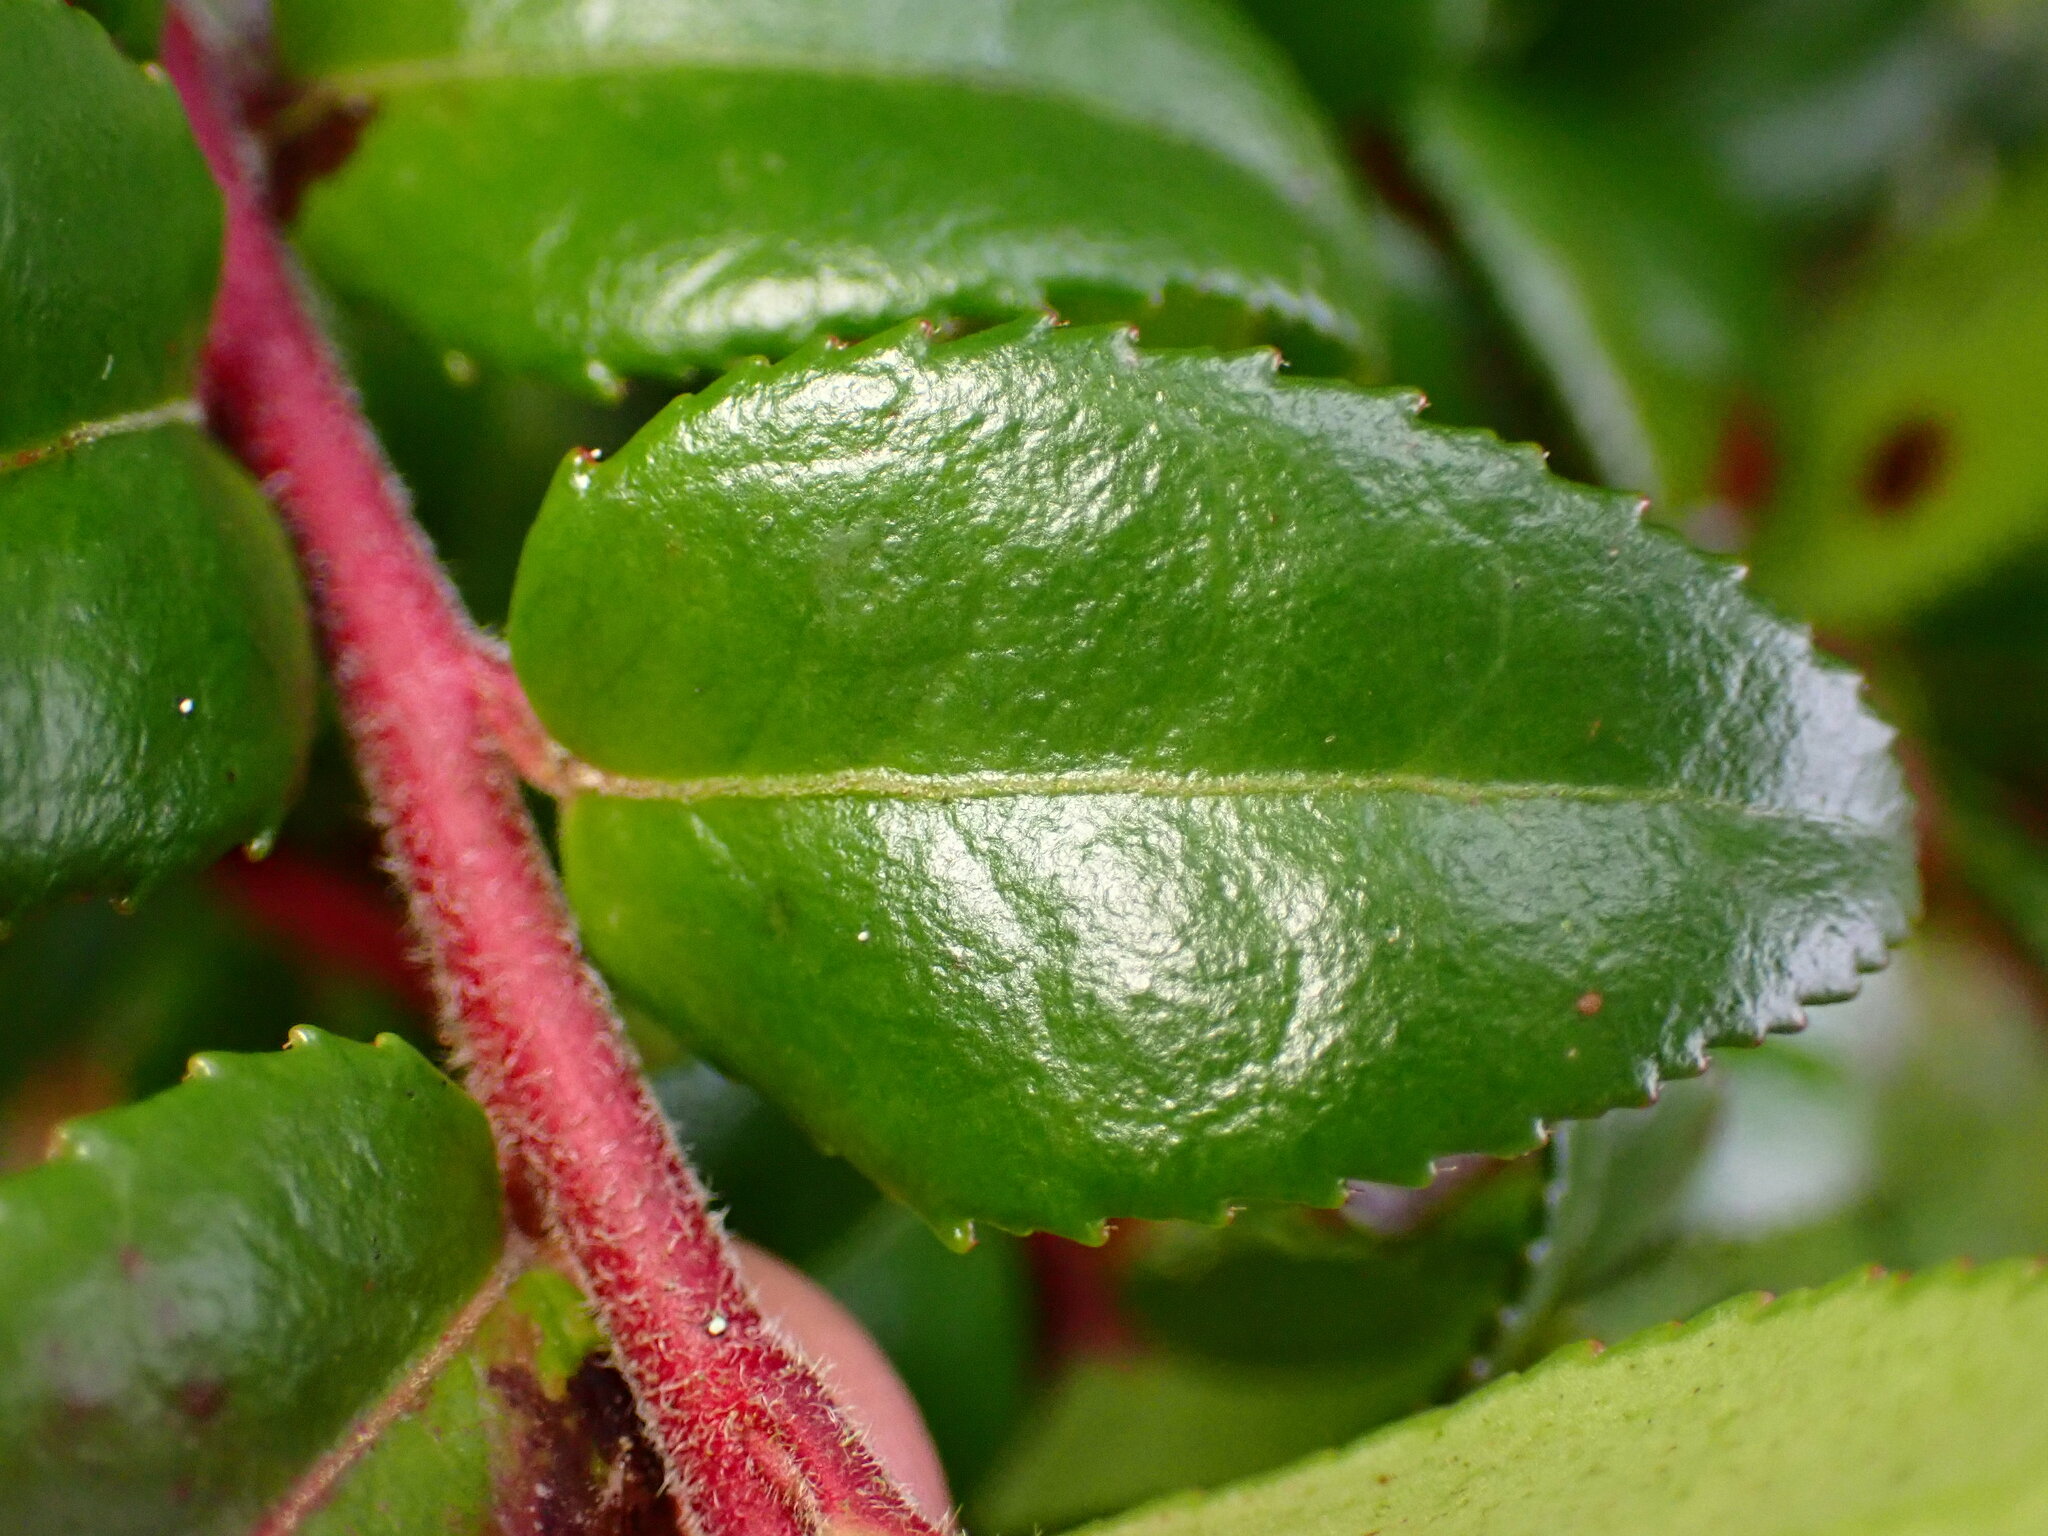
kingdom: Plantae
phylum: Tracheophyta
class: Magnoliopsida
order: Ericales
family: Ericaceae
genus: Vaccinium
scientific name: Vaccinium ovatum
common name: California-huckleberry
